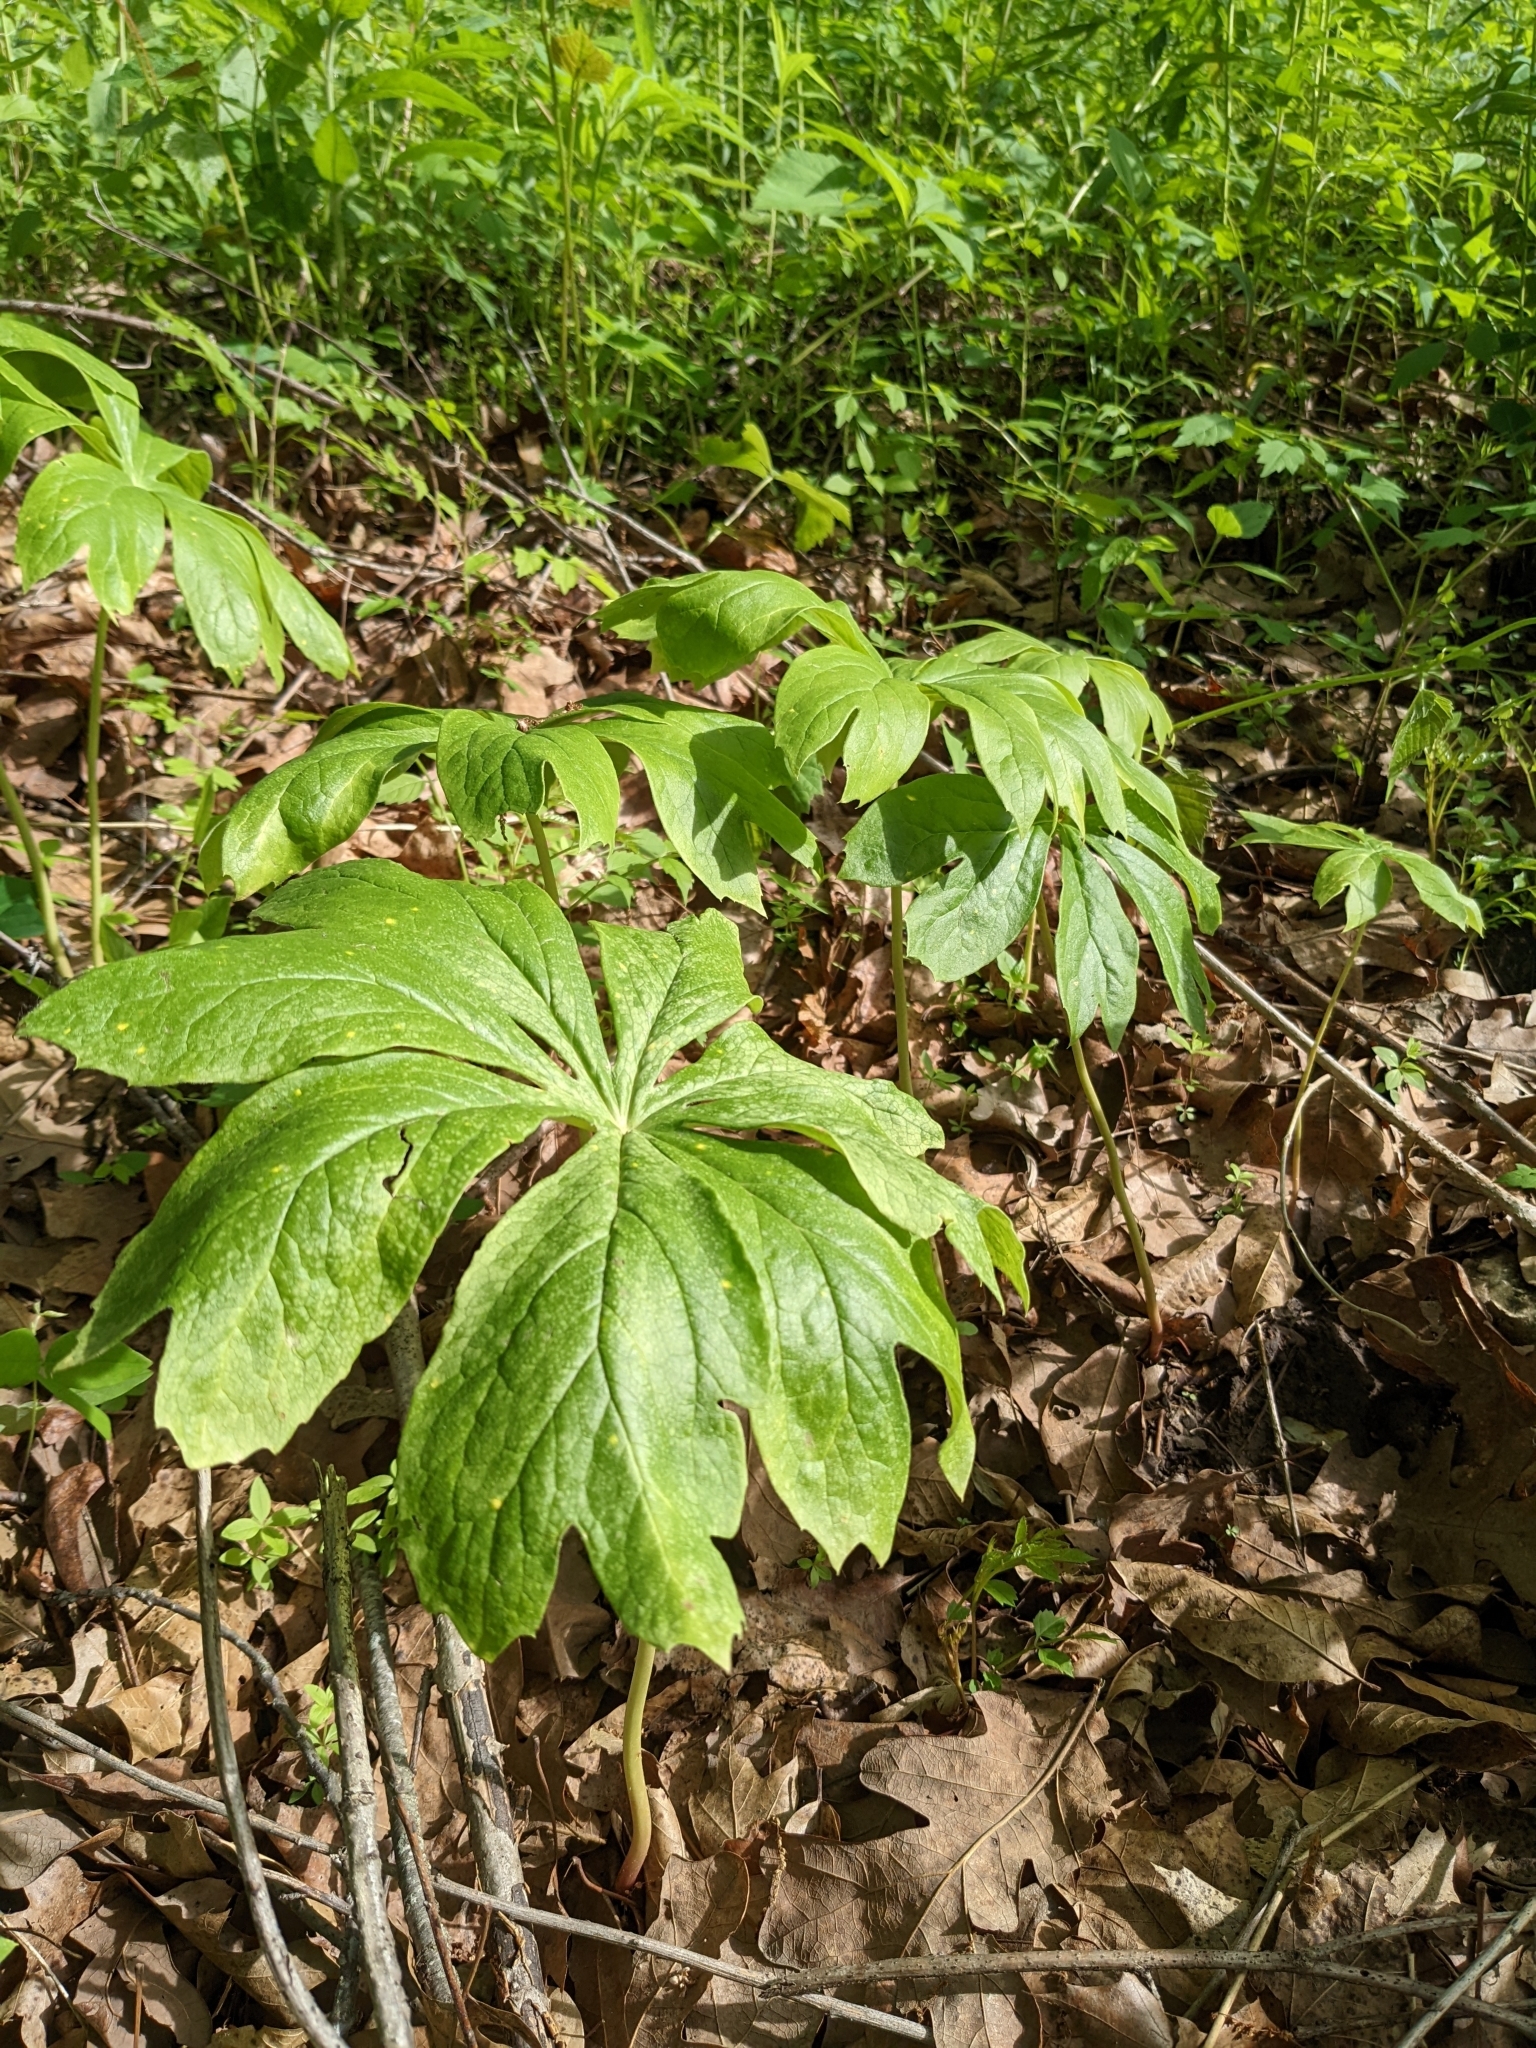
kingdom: Plantae
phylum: Tracheophyta
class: Magnoliopsida
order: Ranunculales
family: Berberidaceae
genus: Podophyllum
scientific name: Podophyllum peltatum
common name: Wild mandrake
